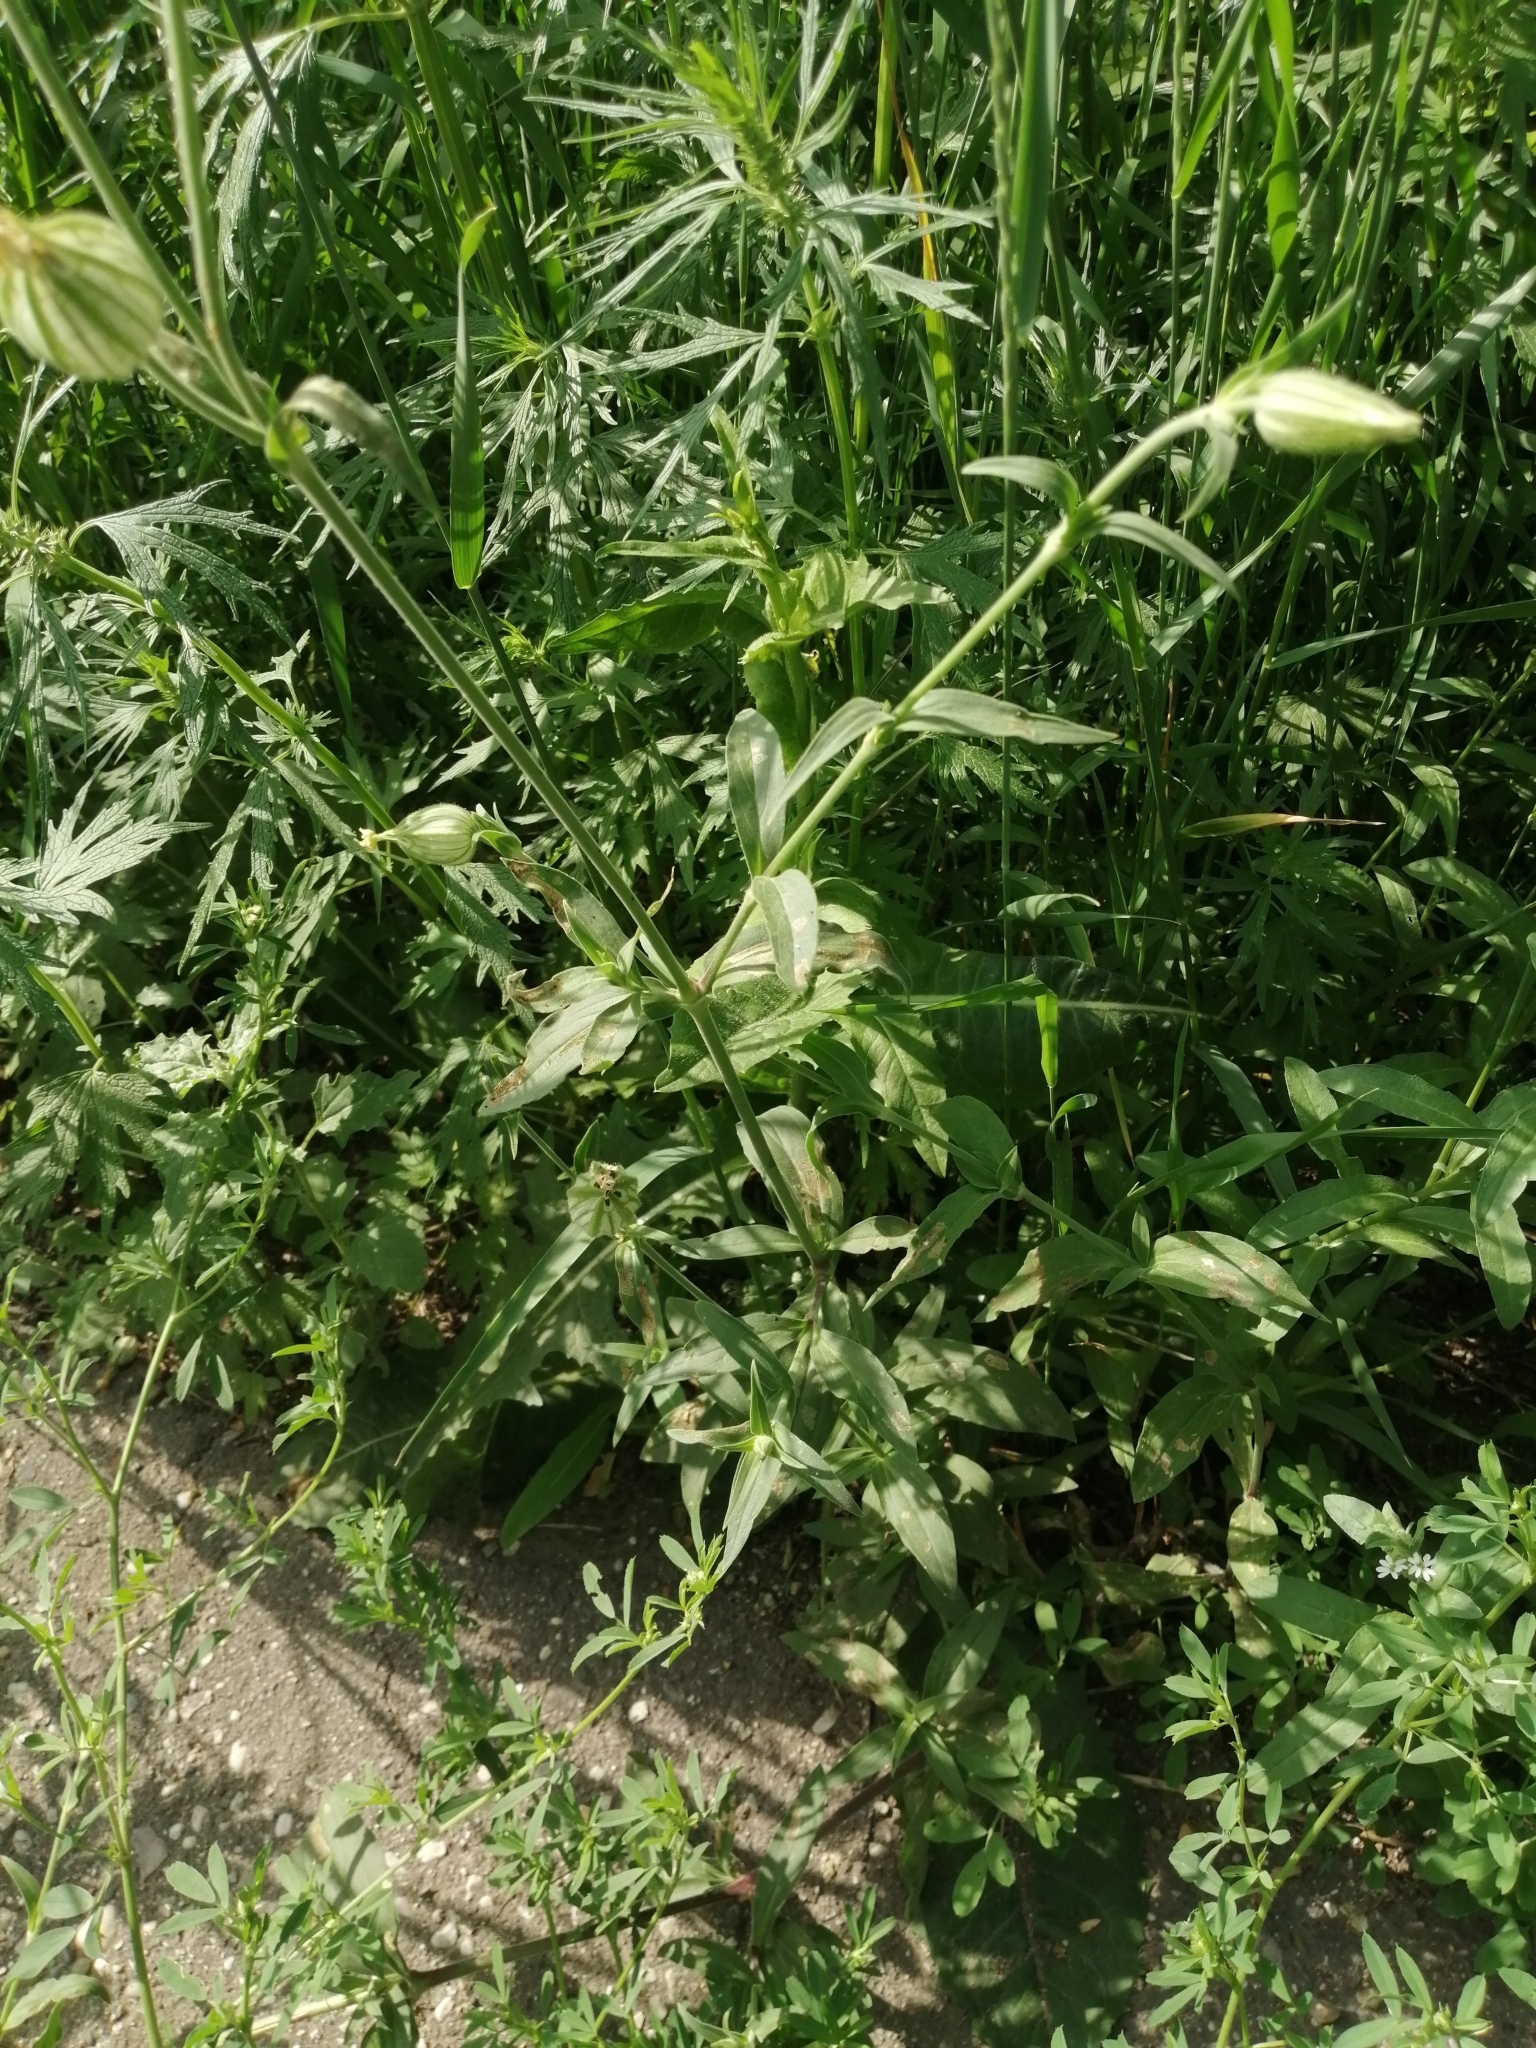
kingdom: Plantae
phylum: Tracheophyta
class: Magnoliopsida
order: Caryophyllales
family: Caryophyllaceae
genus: Silene
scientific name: Silene latifolia
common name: White campion
